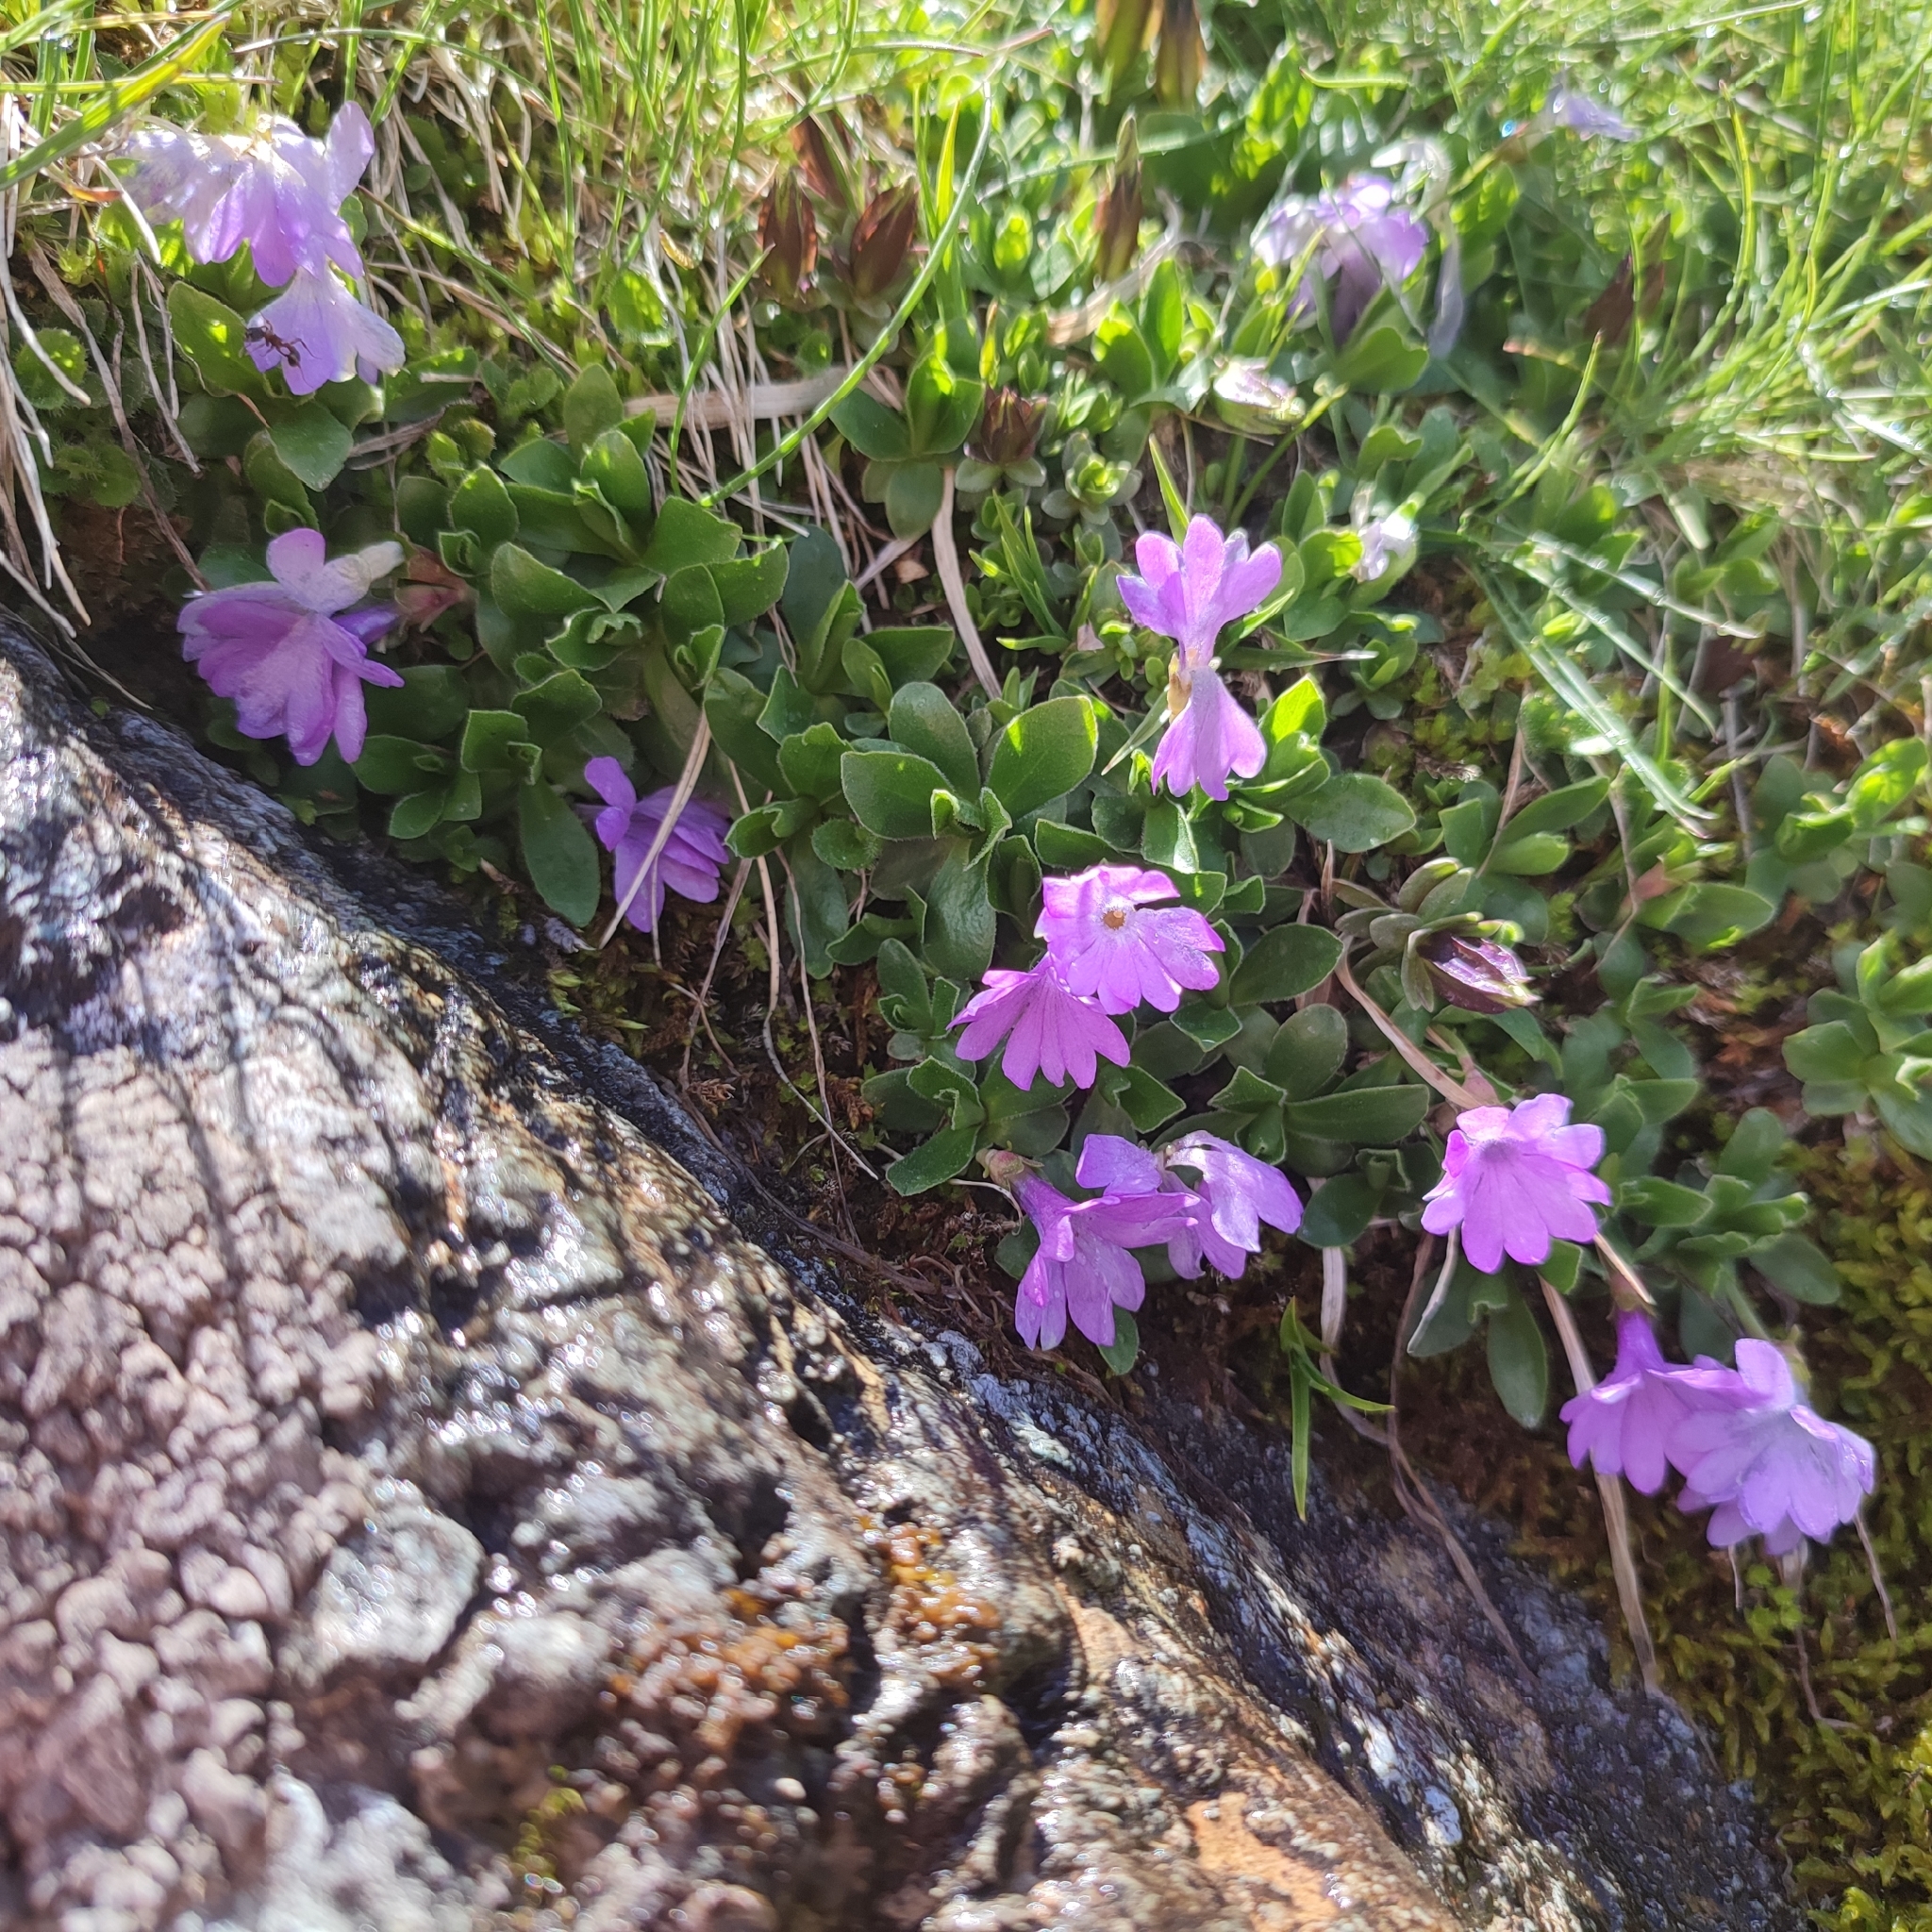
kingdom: Plantae
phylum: Tracheophyta
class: Magnoliopsida
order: Ericales
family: Primulaceae
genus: Primula
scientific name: Primula integrifolia
